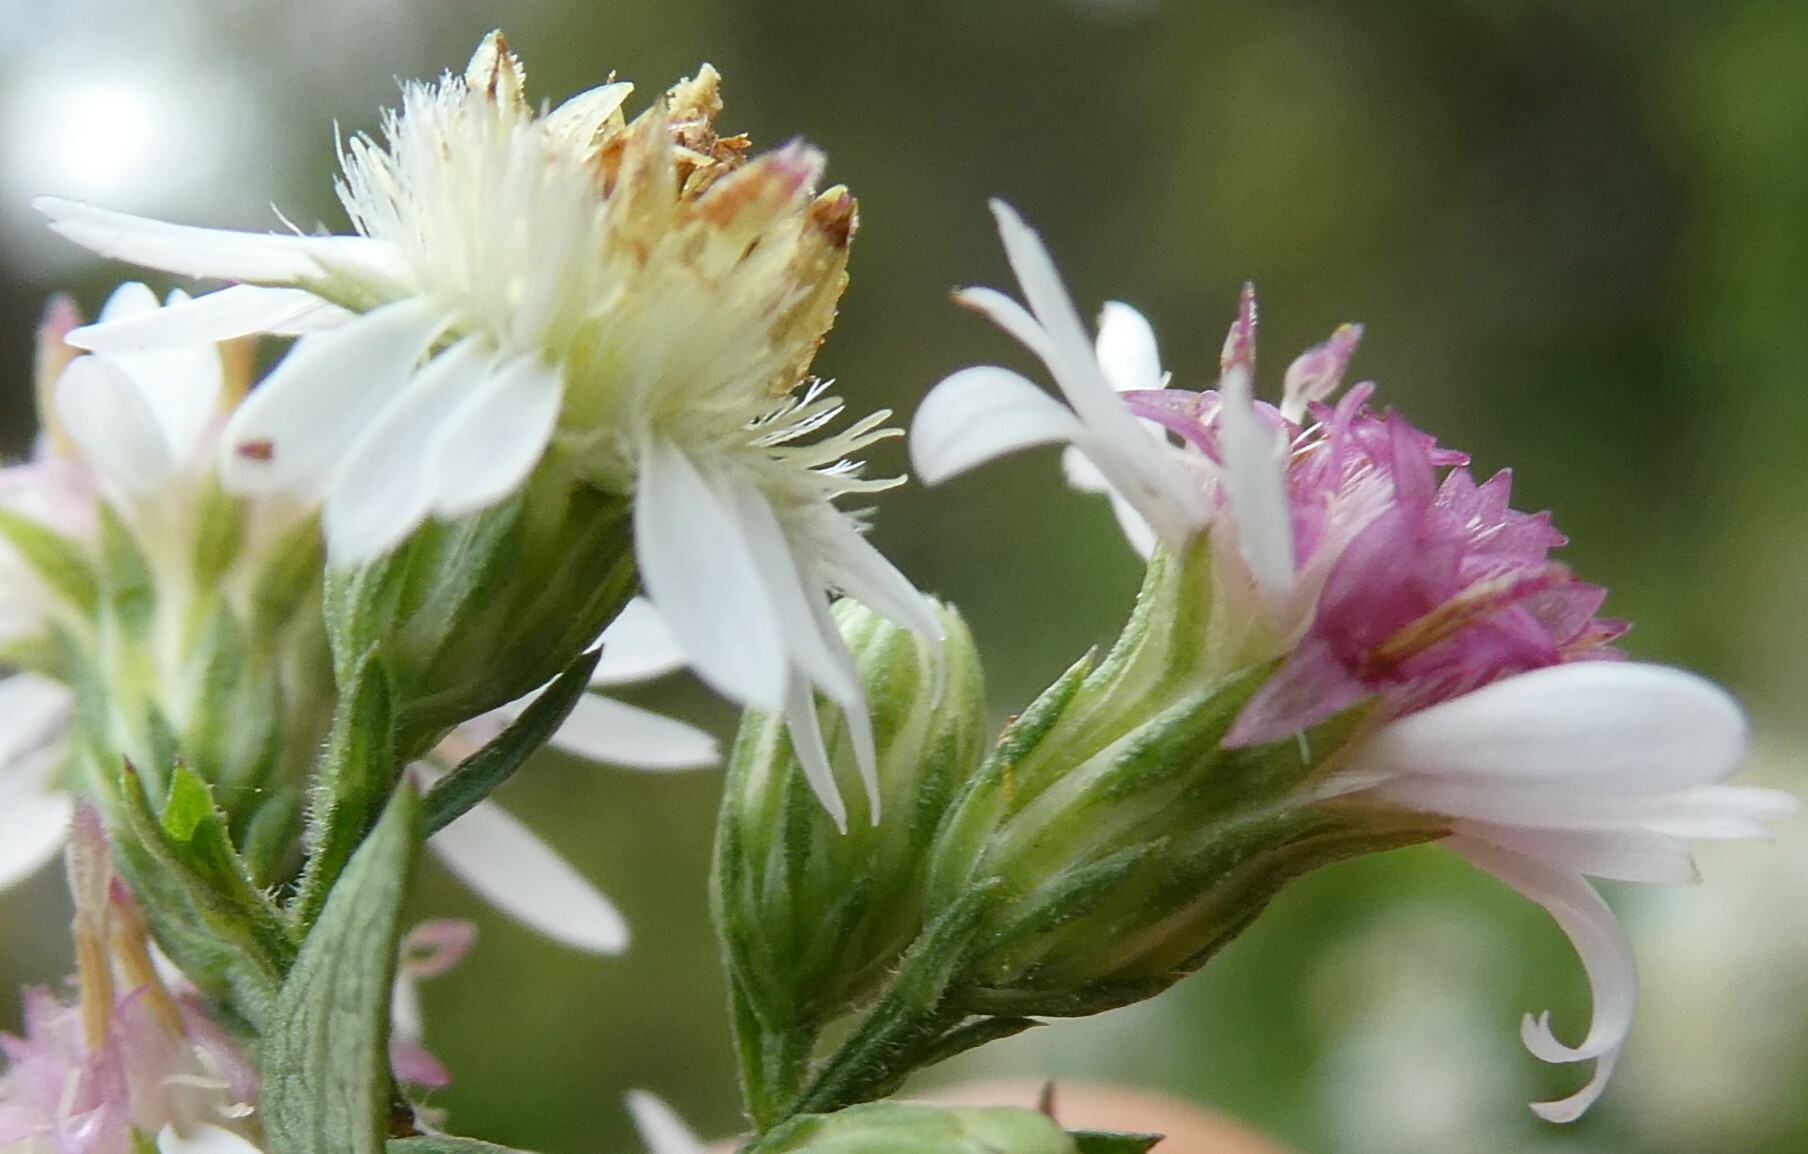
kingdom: Plantae
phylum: Tracheophyta
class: Magnoliopsida
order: Asterales
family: Asteraceae
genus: Symphyotrichum
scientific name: Symphyotrichum lateriflorum
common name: Calico aster
